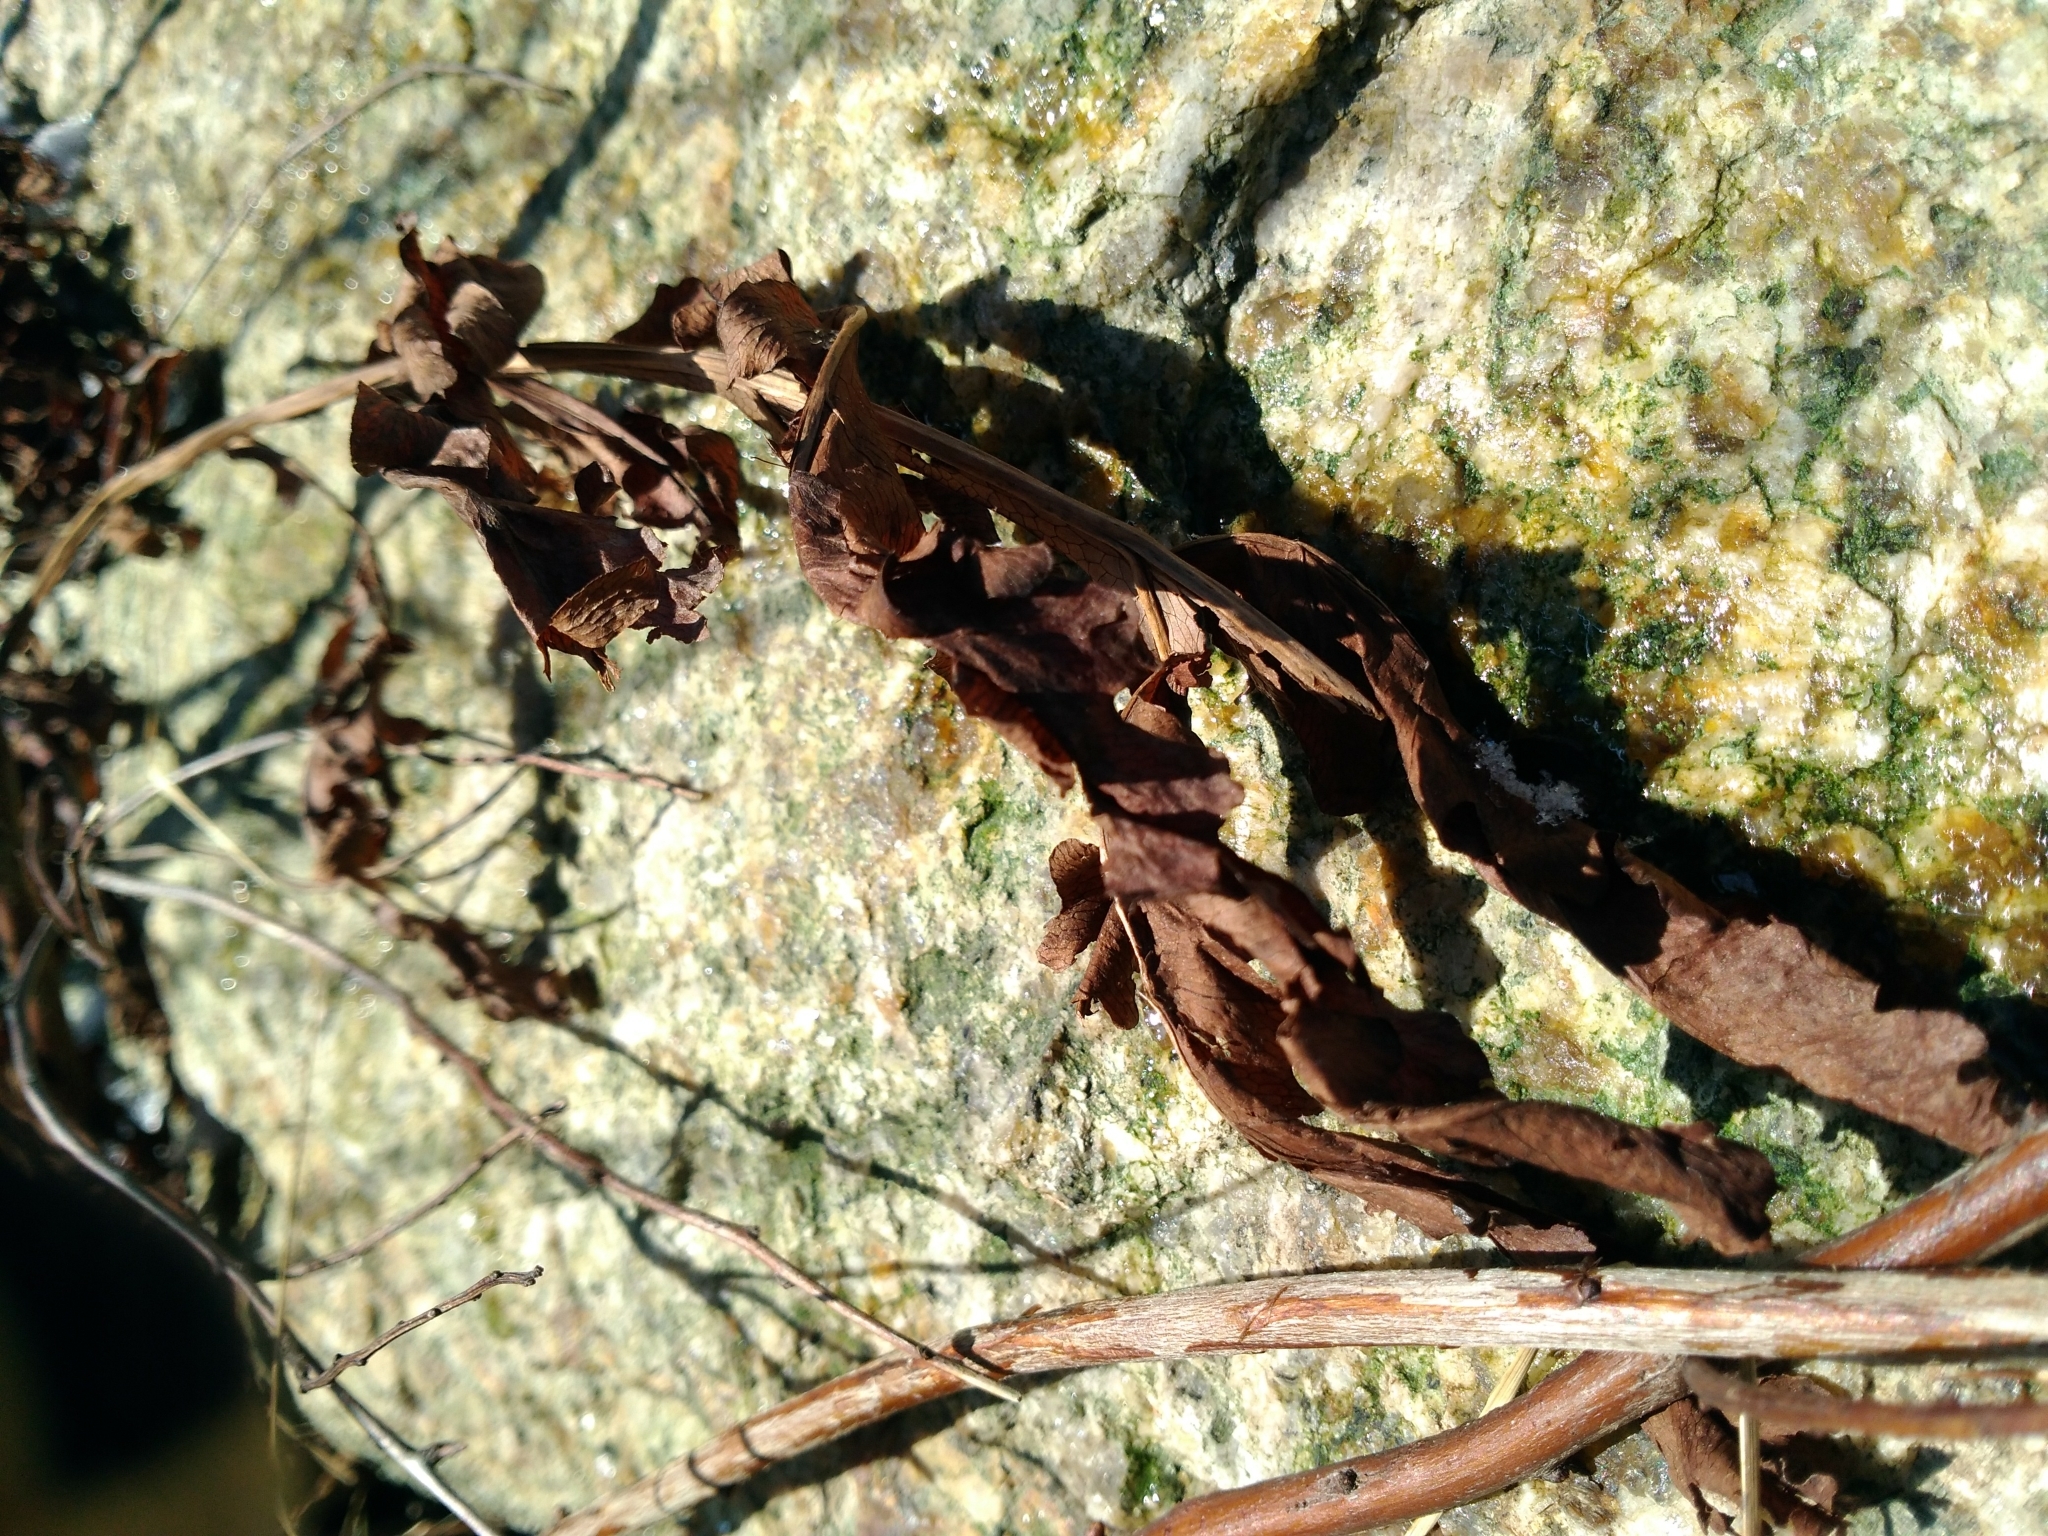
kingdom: Plantae
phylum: Tracheophyta
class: Polypodiopsida
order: Polypodiales
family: Onocleaceae
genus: Onoclea
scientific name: Onoclea sensibilis
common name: Sensitive fern
